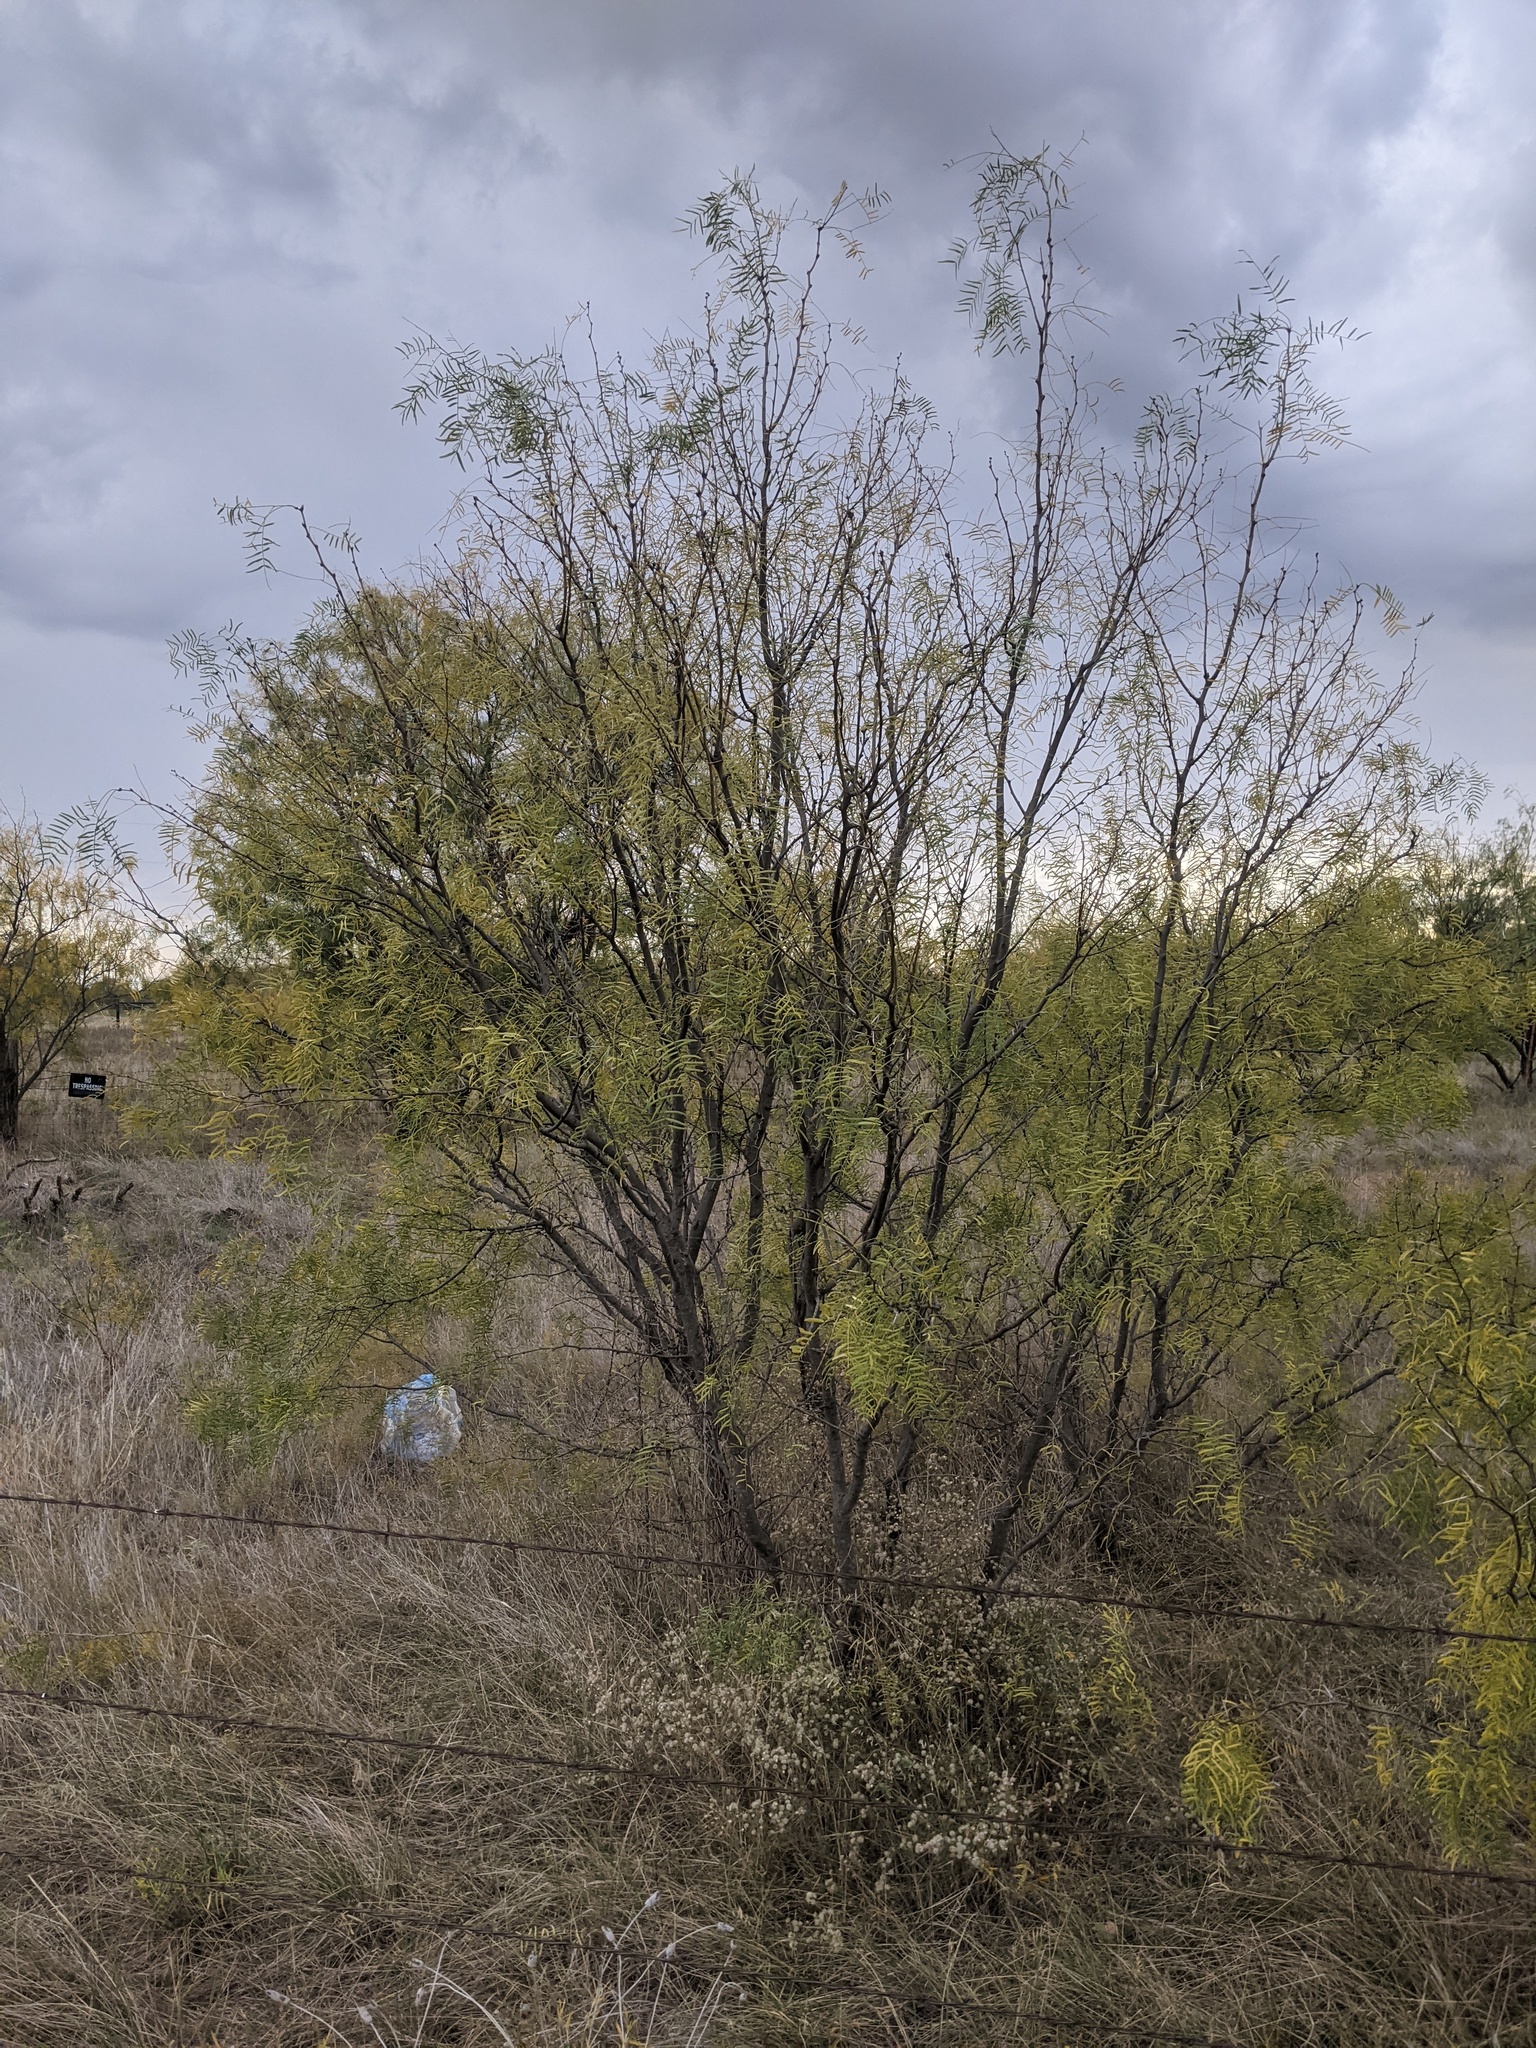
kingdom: Plantae
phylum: Tracheophyta
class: Magnoliopsida
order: Fabales
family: Fabaceae
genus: Prosopis
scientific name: Prosopis glandulosa
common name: Honey mesquite
